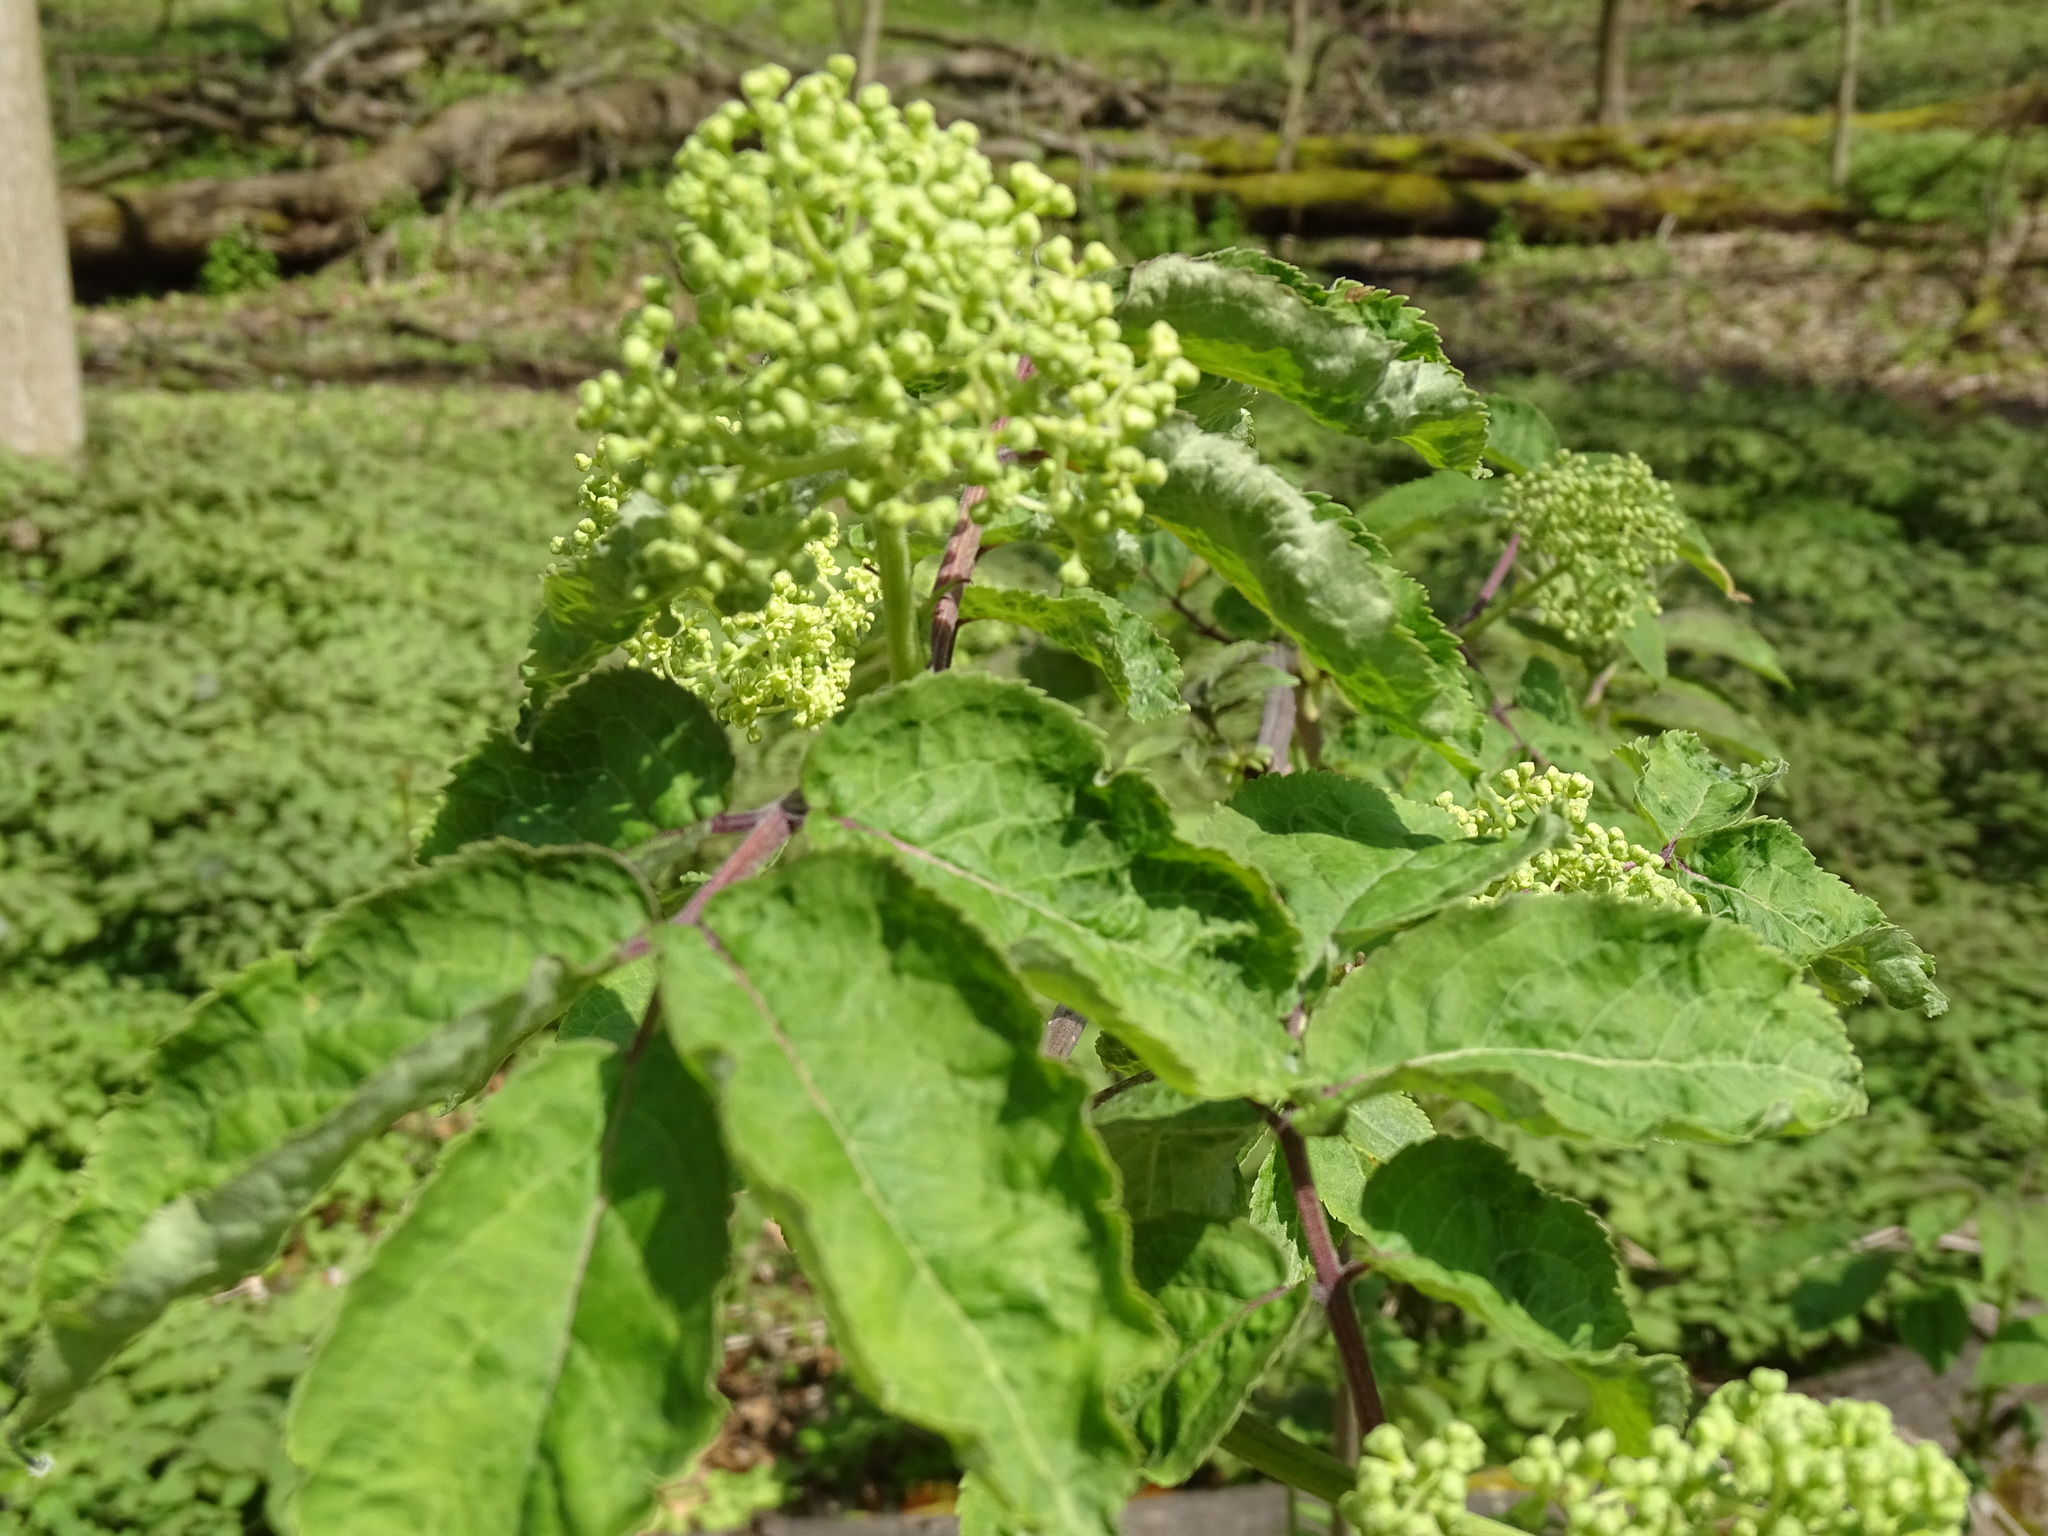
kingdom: Plantae
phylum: Tracheophyta
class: Magnoliopsida
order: Dipsacales
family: Viburnaceae
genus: Sambucus
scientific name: Sambucus racemosa
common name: Red-berried elder
